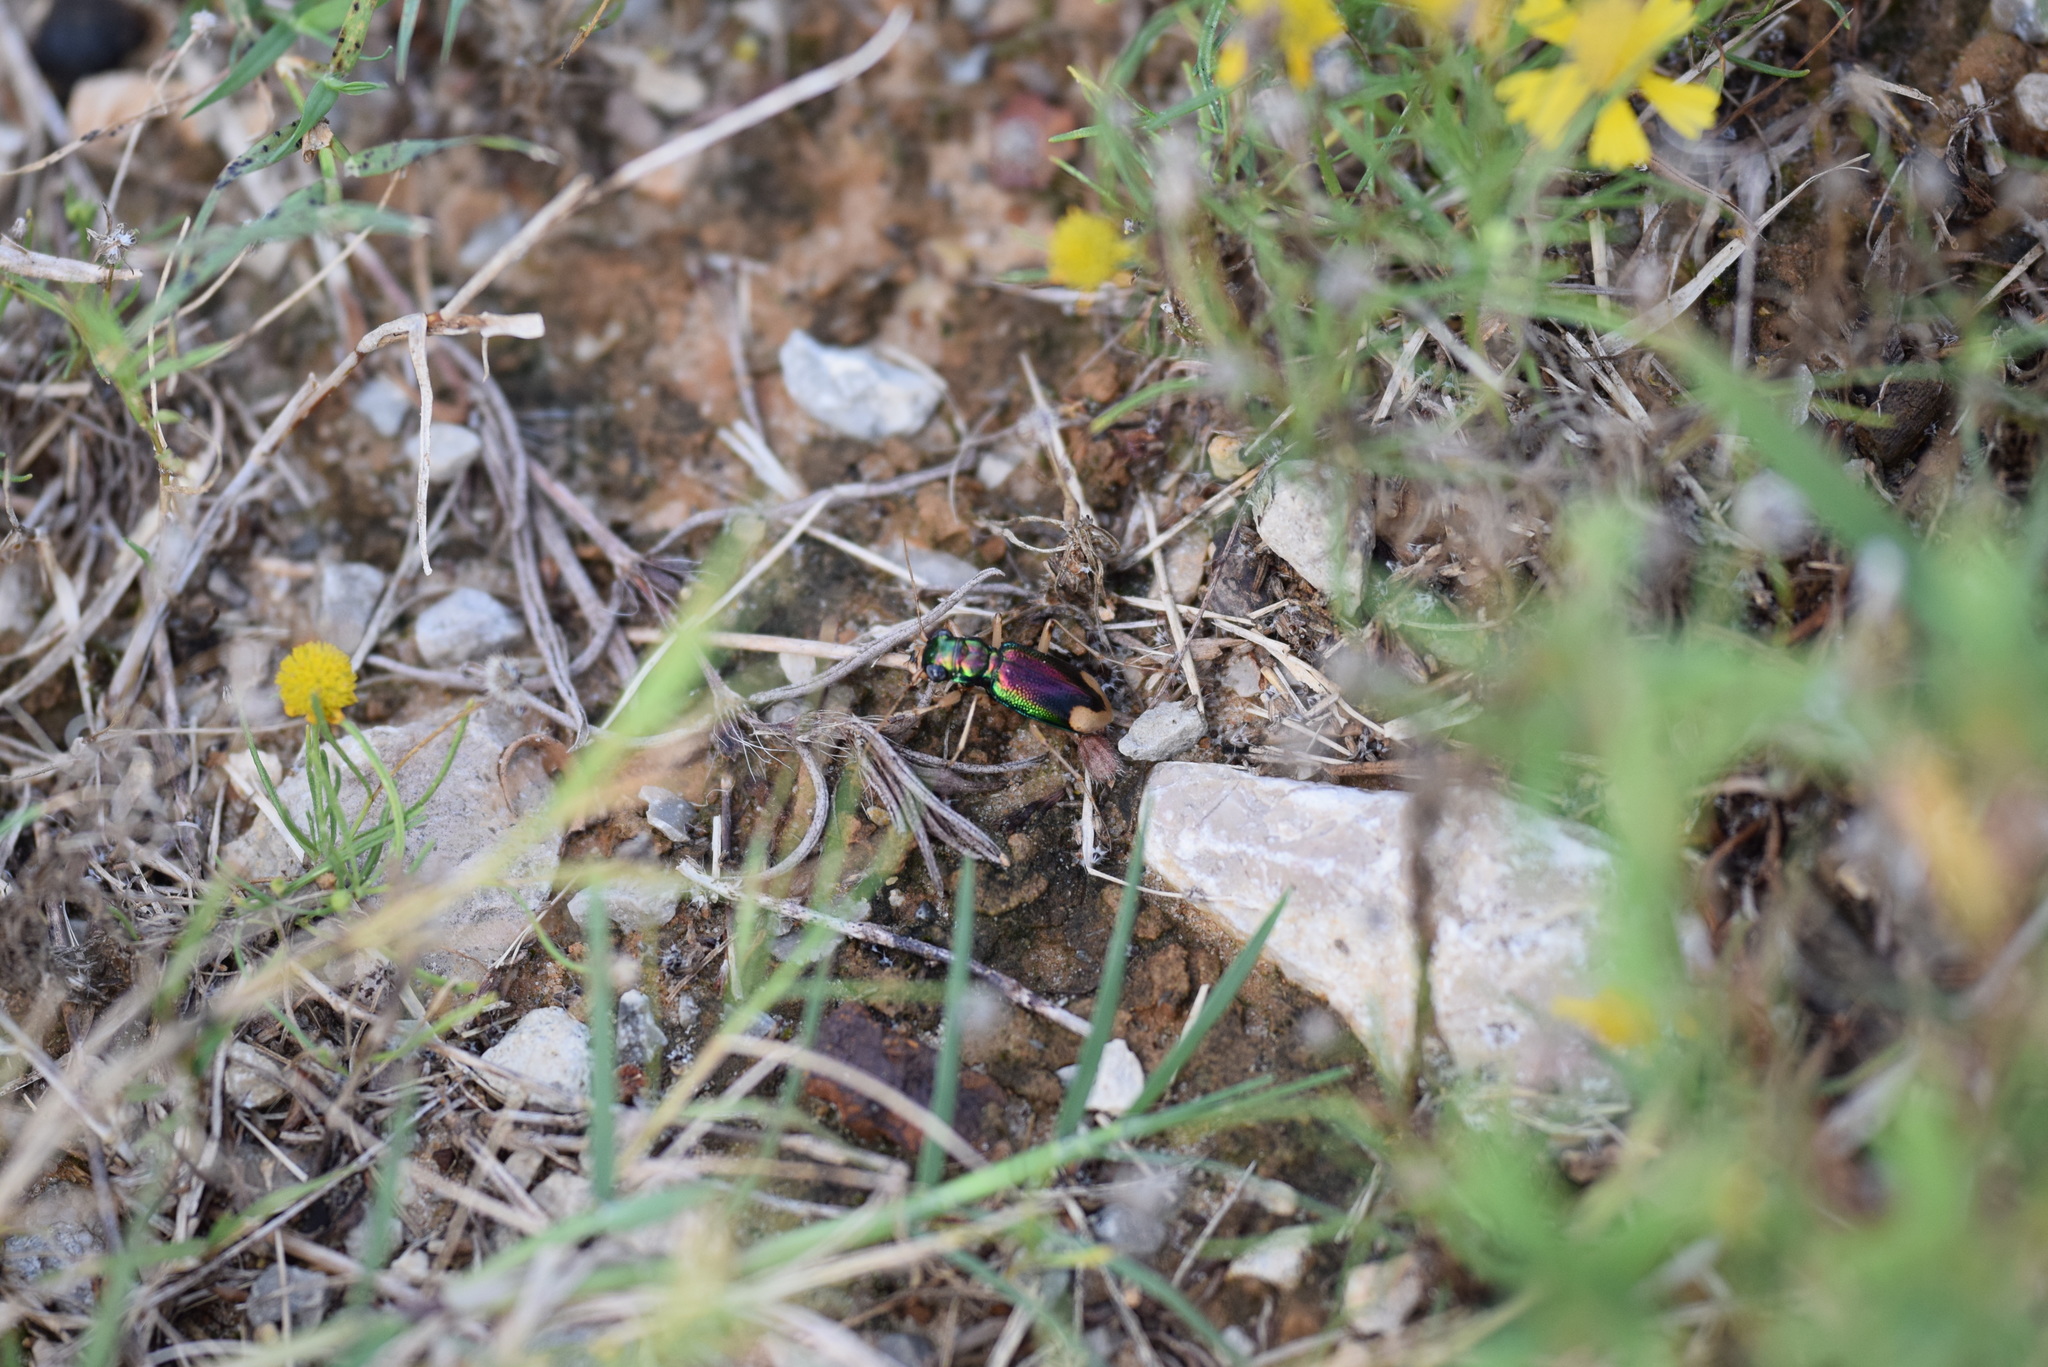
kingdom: Animalia
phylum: Arthropoda
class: Insecta
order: Coleoptera
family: Carabidae
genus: Tetracha
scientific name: Tetracha carolina
